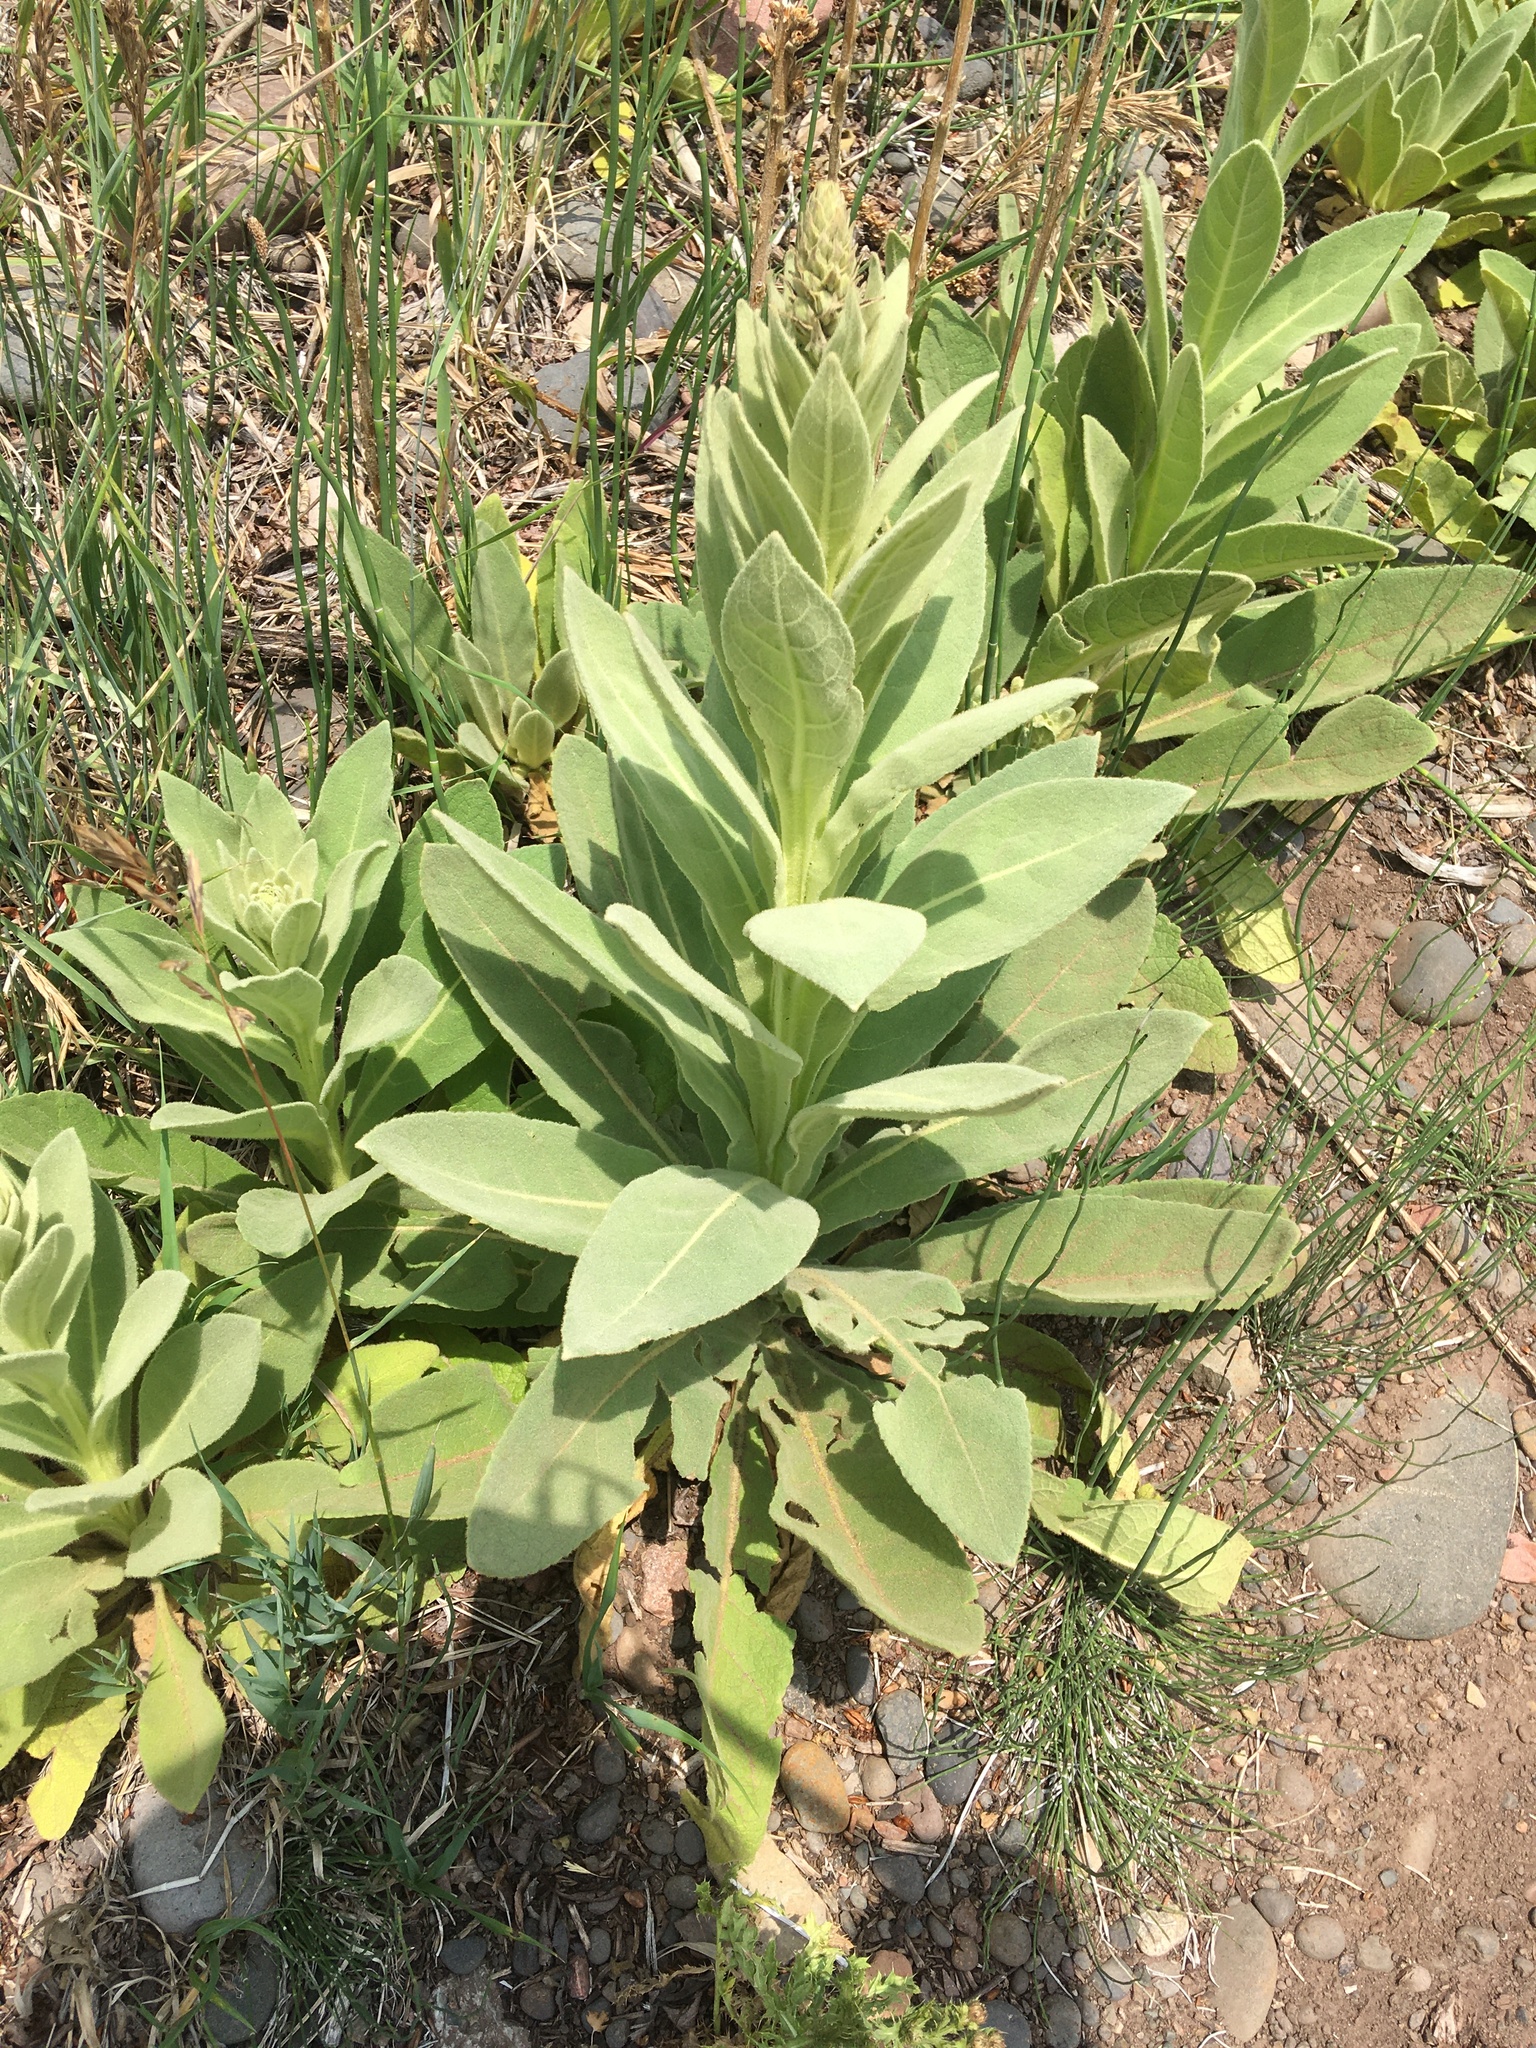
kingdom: Plantae
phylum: Tracheophyta
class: Magnoliopsida
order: Lamiales
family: Scrophulariaceae
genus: Verbascum
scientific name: Verbascum thapsus
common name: Common mullein
